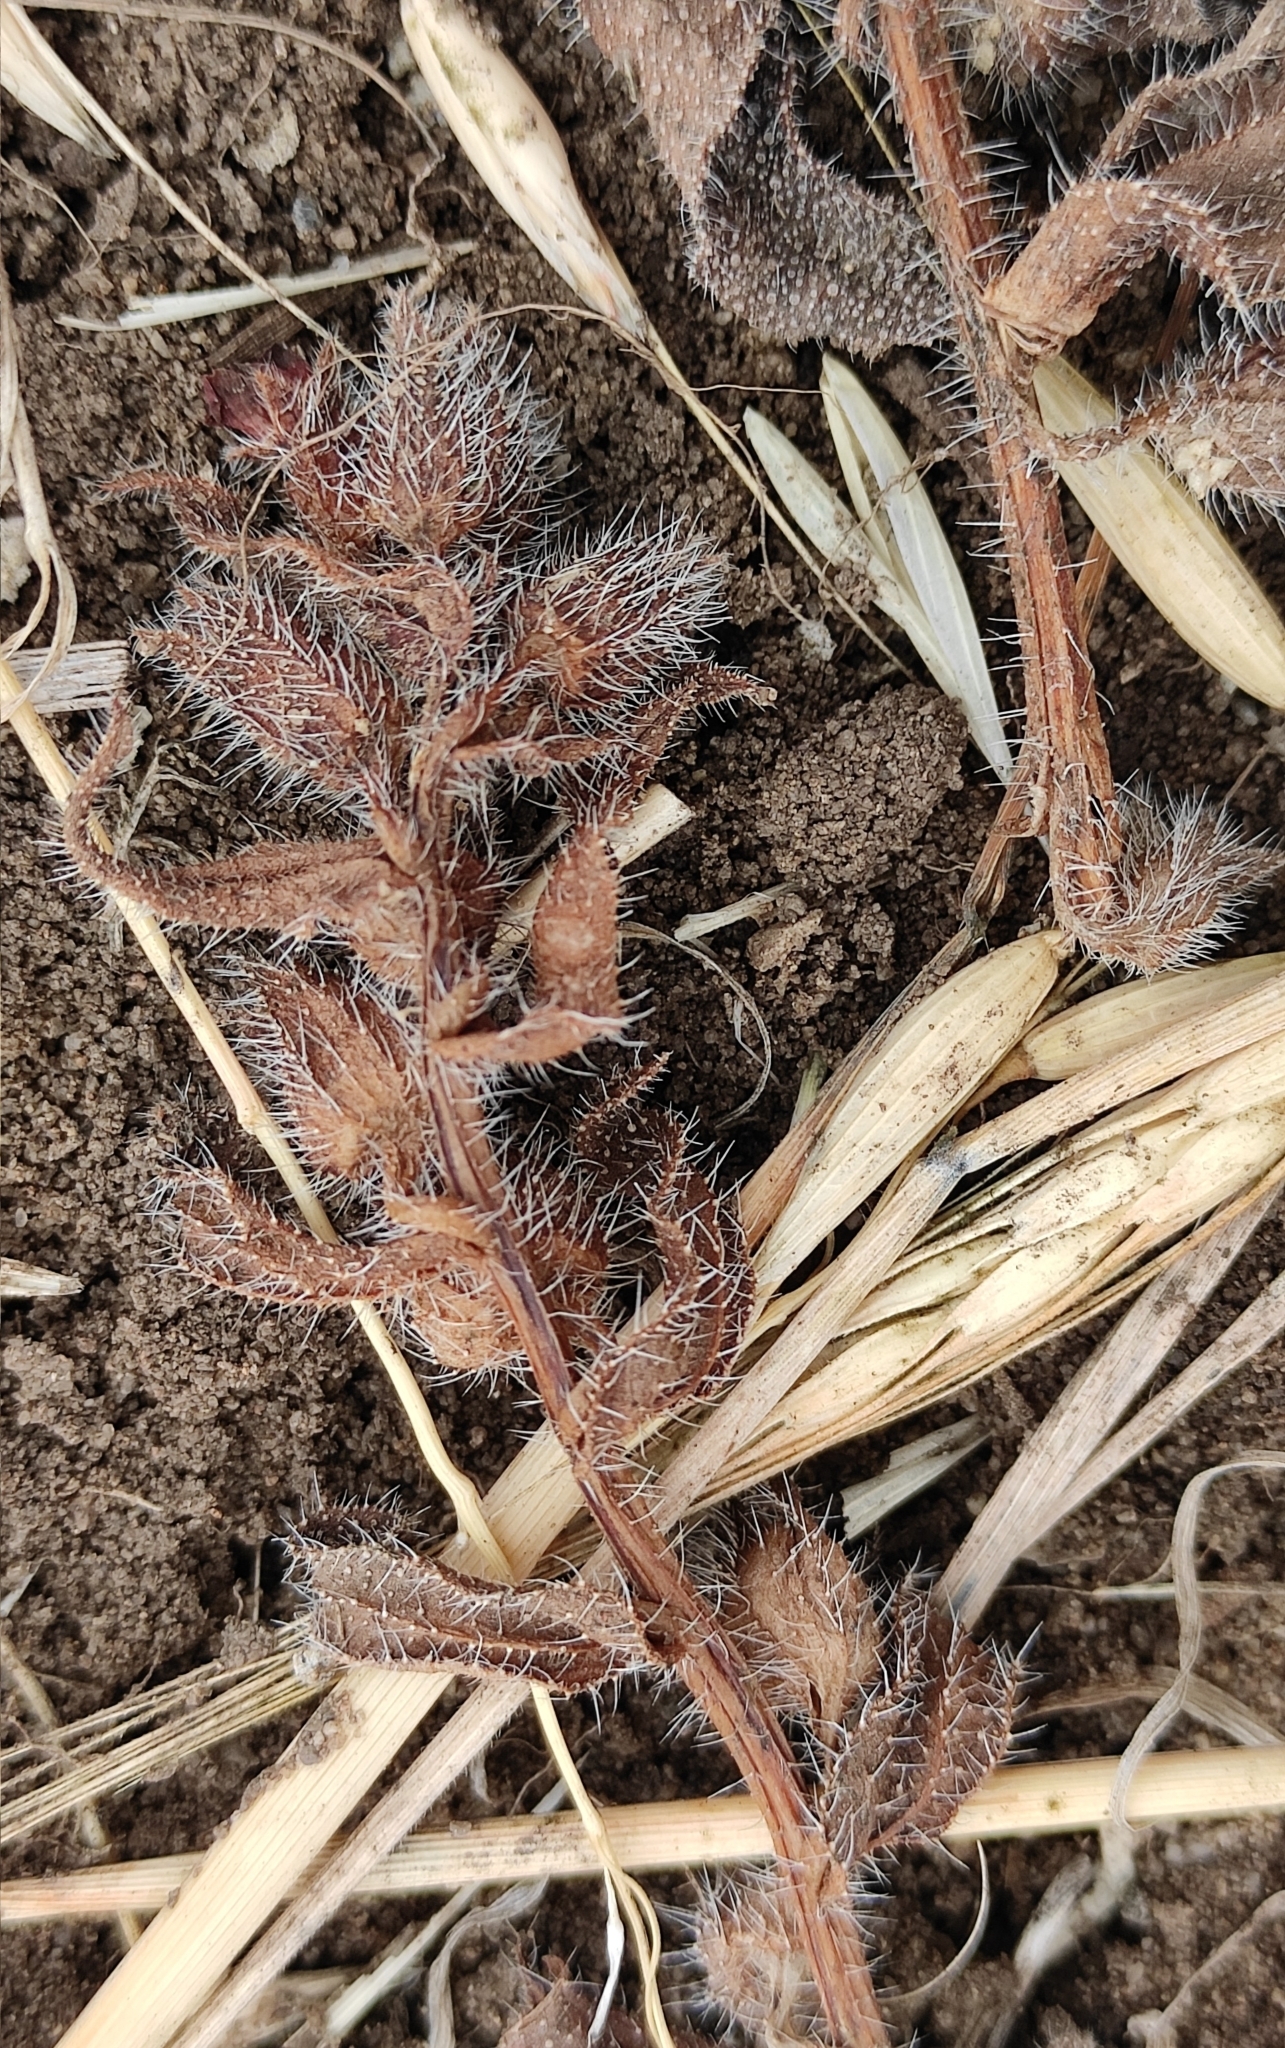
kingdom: Plantae
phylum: Tracheophyta
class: Magnoliopsida
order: Boraginales
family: Boraginaceae
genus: Nonea
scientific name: Nonea pulla
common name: Brown nonea
